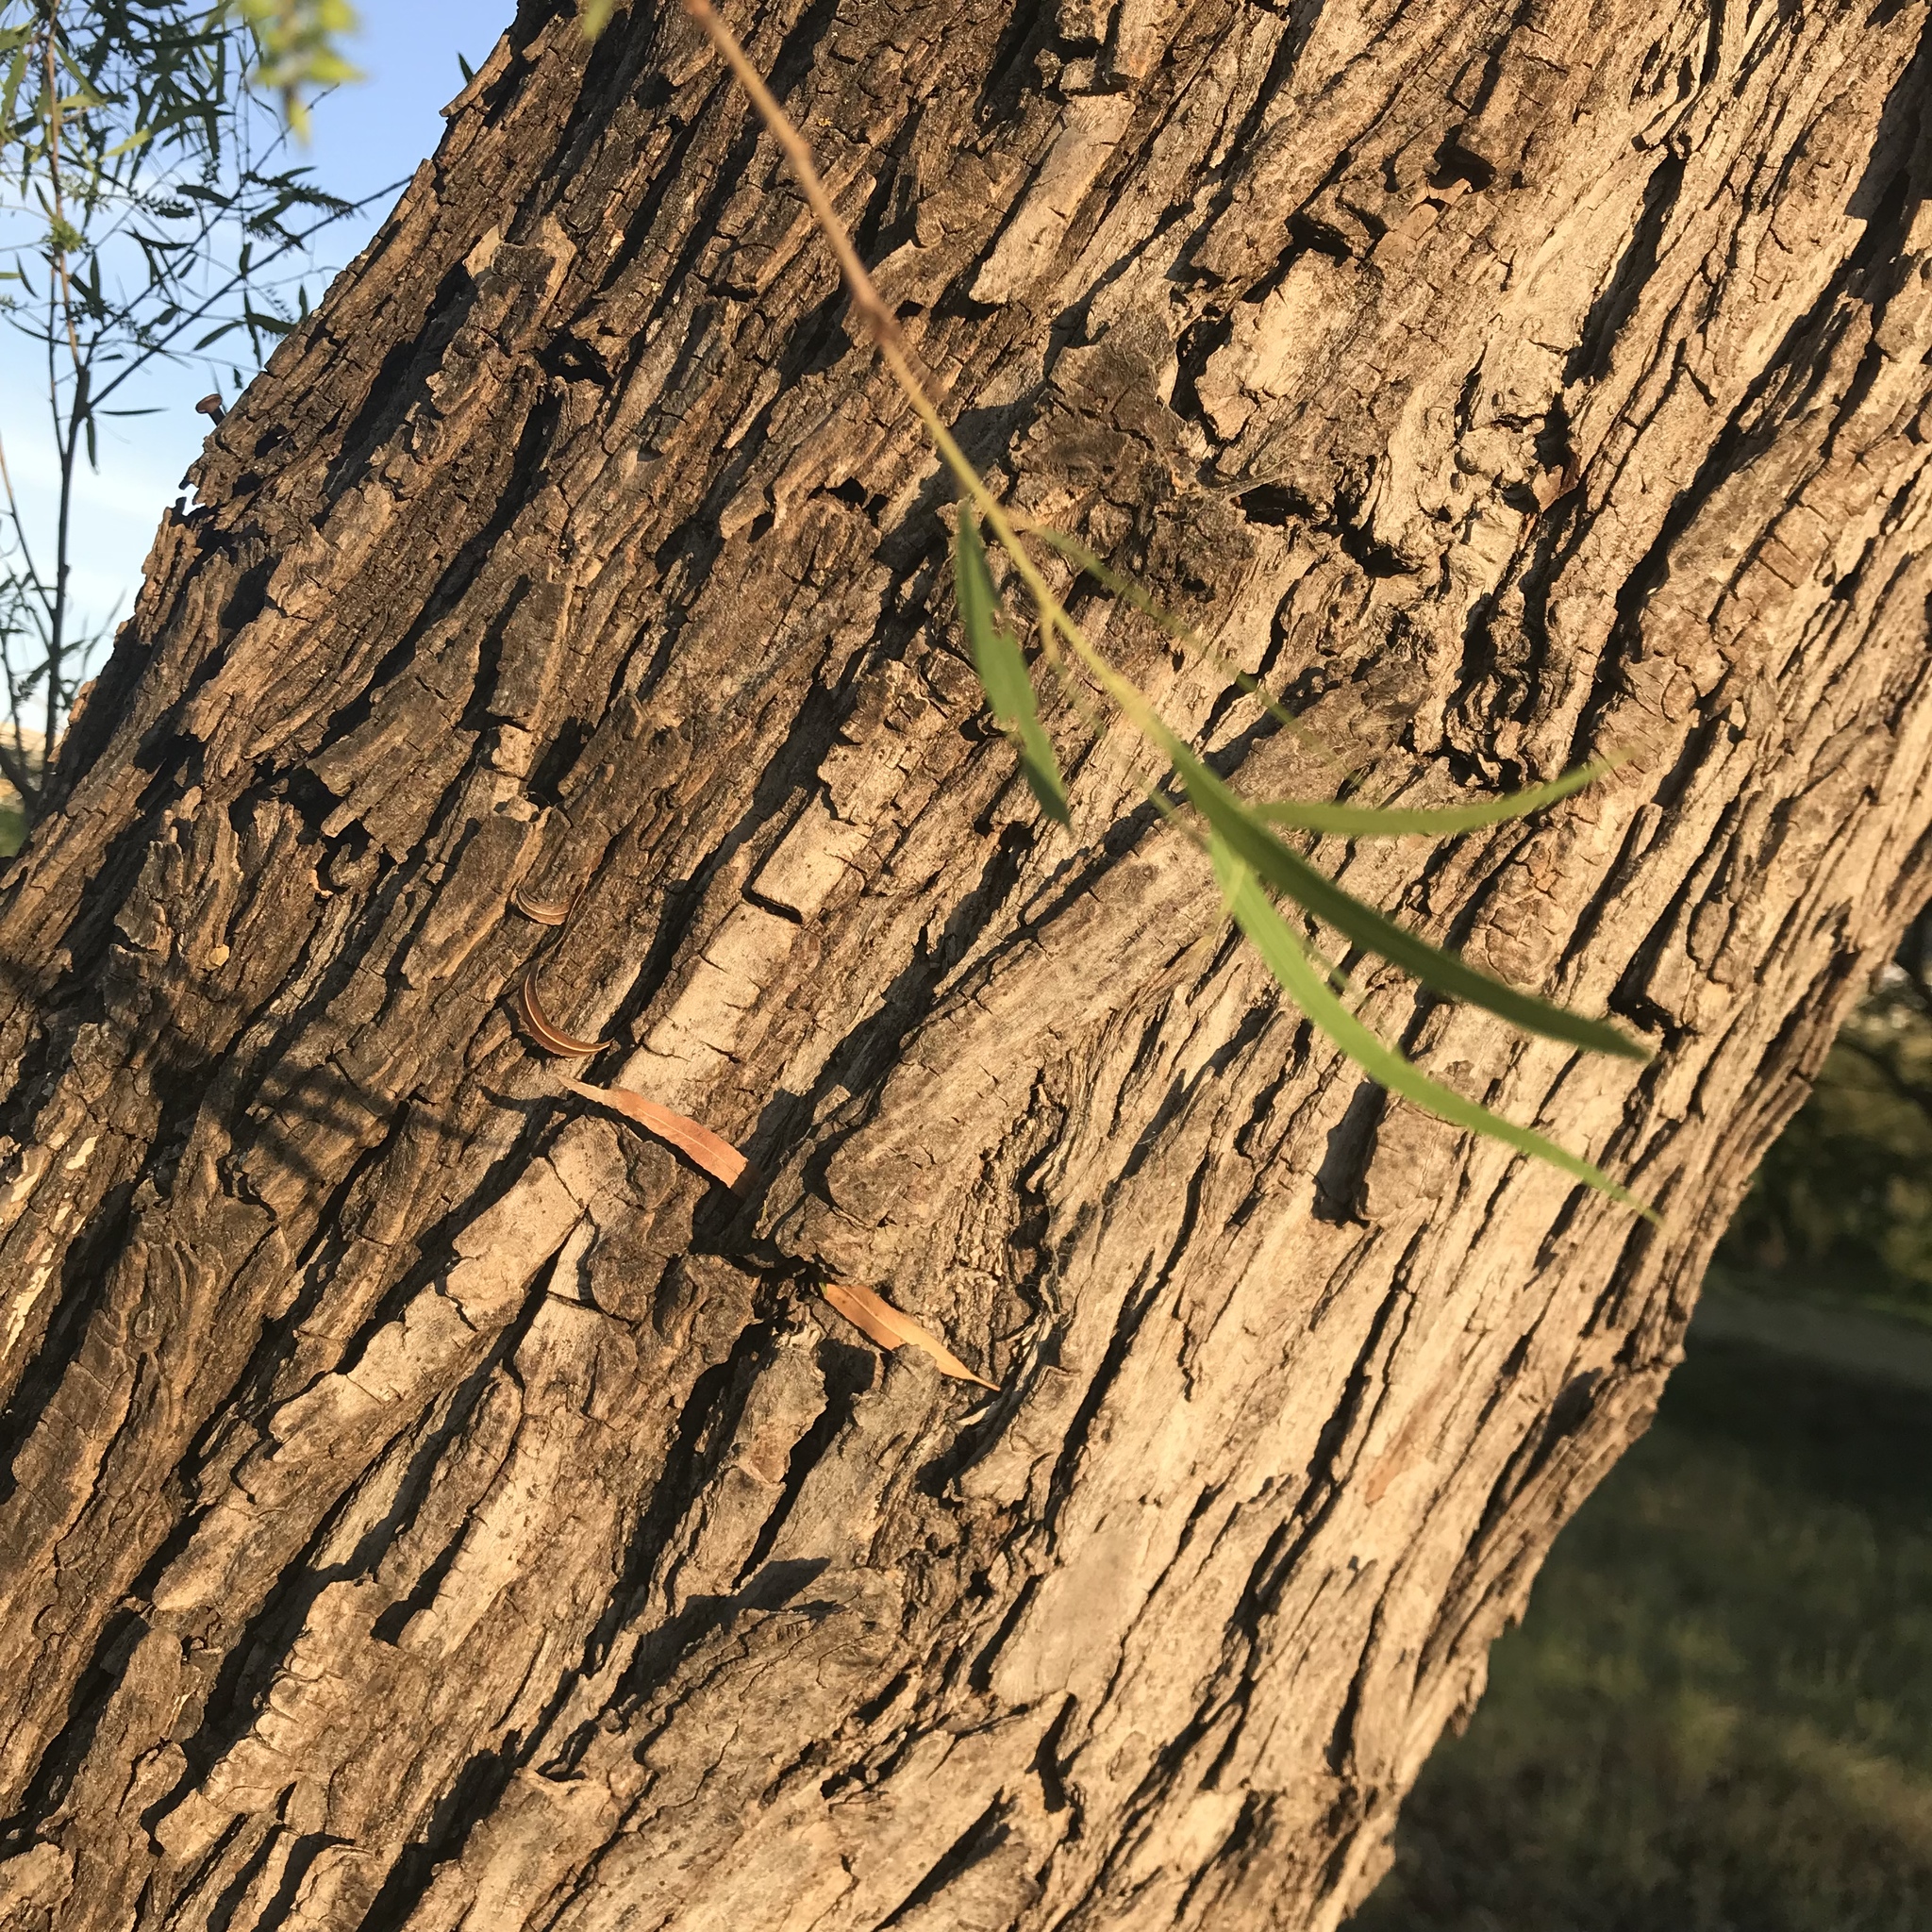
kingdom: Plantae
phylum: Tracheophyta
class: Magnoliopsida
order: Malpighiales
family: Salicaceae
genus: Salix
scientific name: Salix nigra
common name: Black willow
